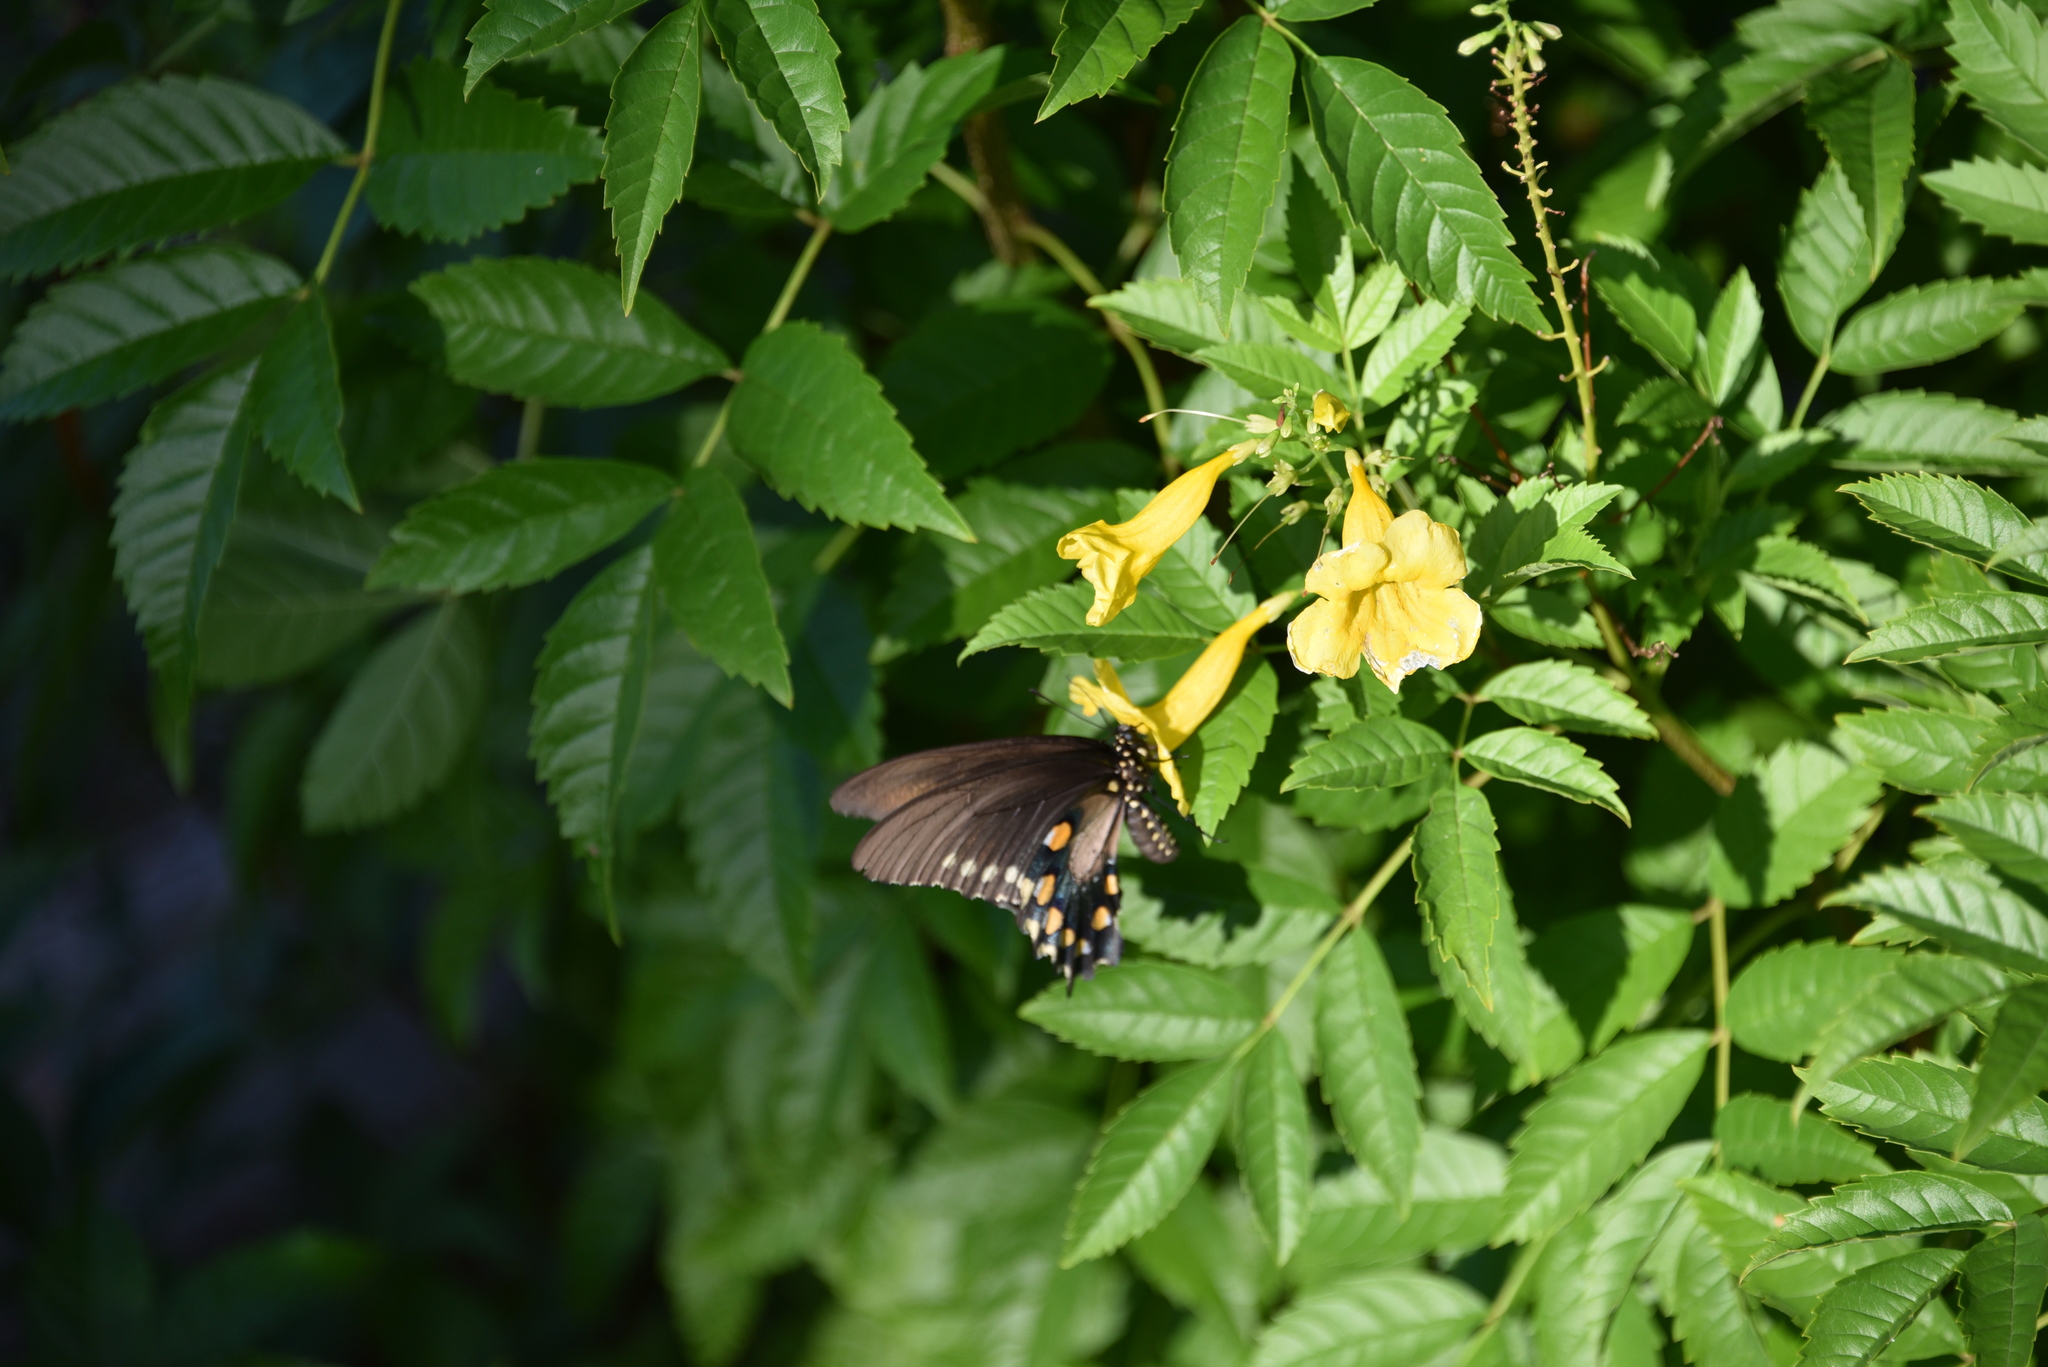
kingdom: Animalia
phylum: Arthropoda
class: Insecta
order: Lepidoptera
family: Papilionidae
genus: Battus
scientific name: Battus philenor
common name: Pipevine swallowtail
